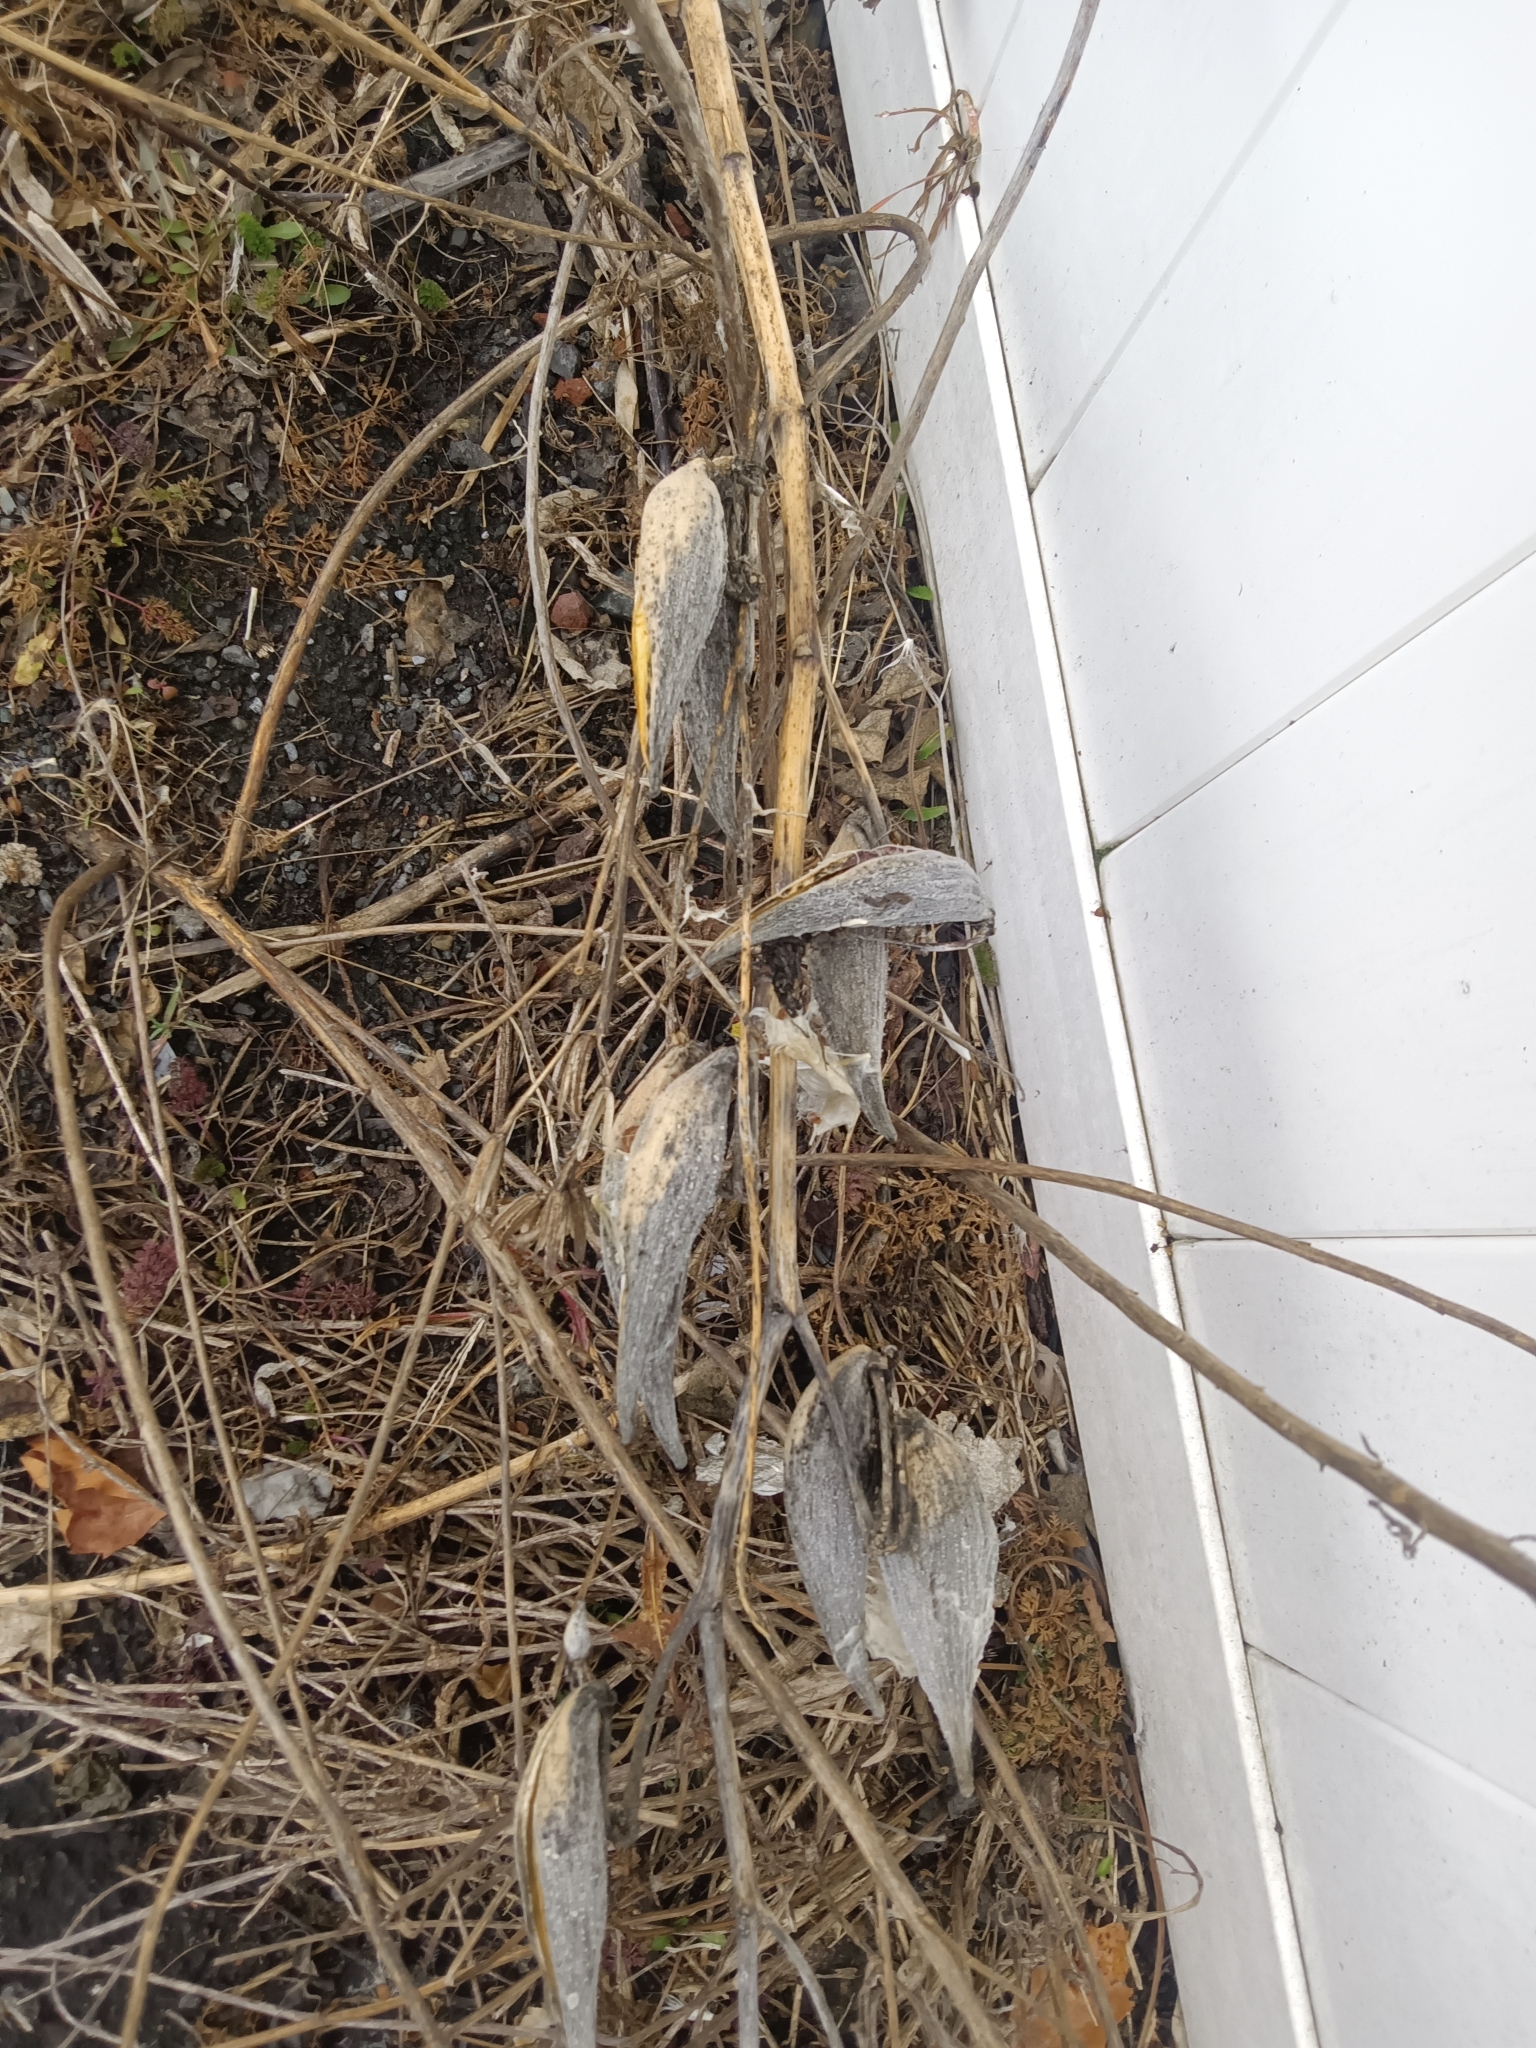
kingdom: Plantae
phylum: Tracheophyta
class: Magnoliopsida
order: Gentianales
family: Apocynaceae
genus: Asclepias
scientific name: Asclepias syriaca
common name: Common milkweed
